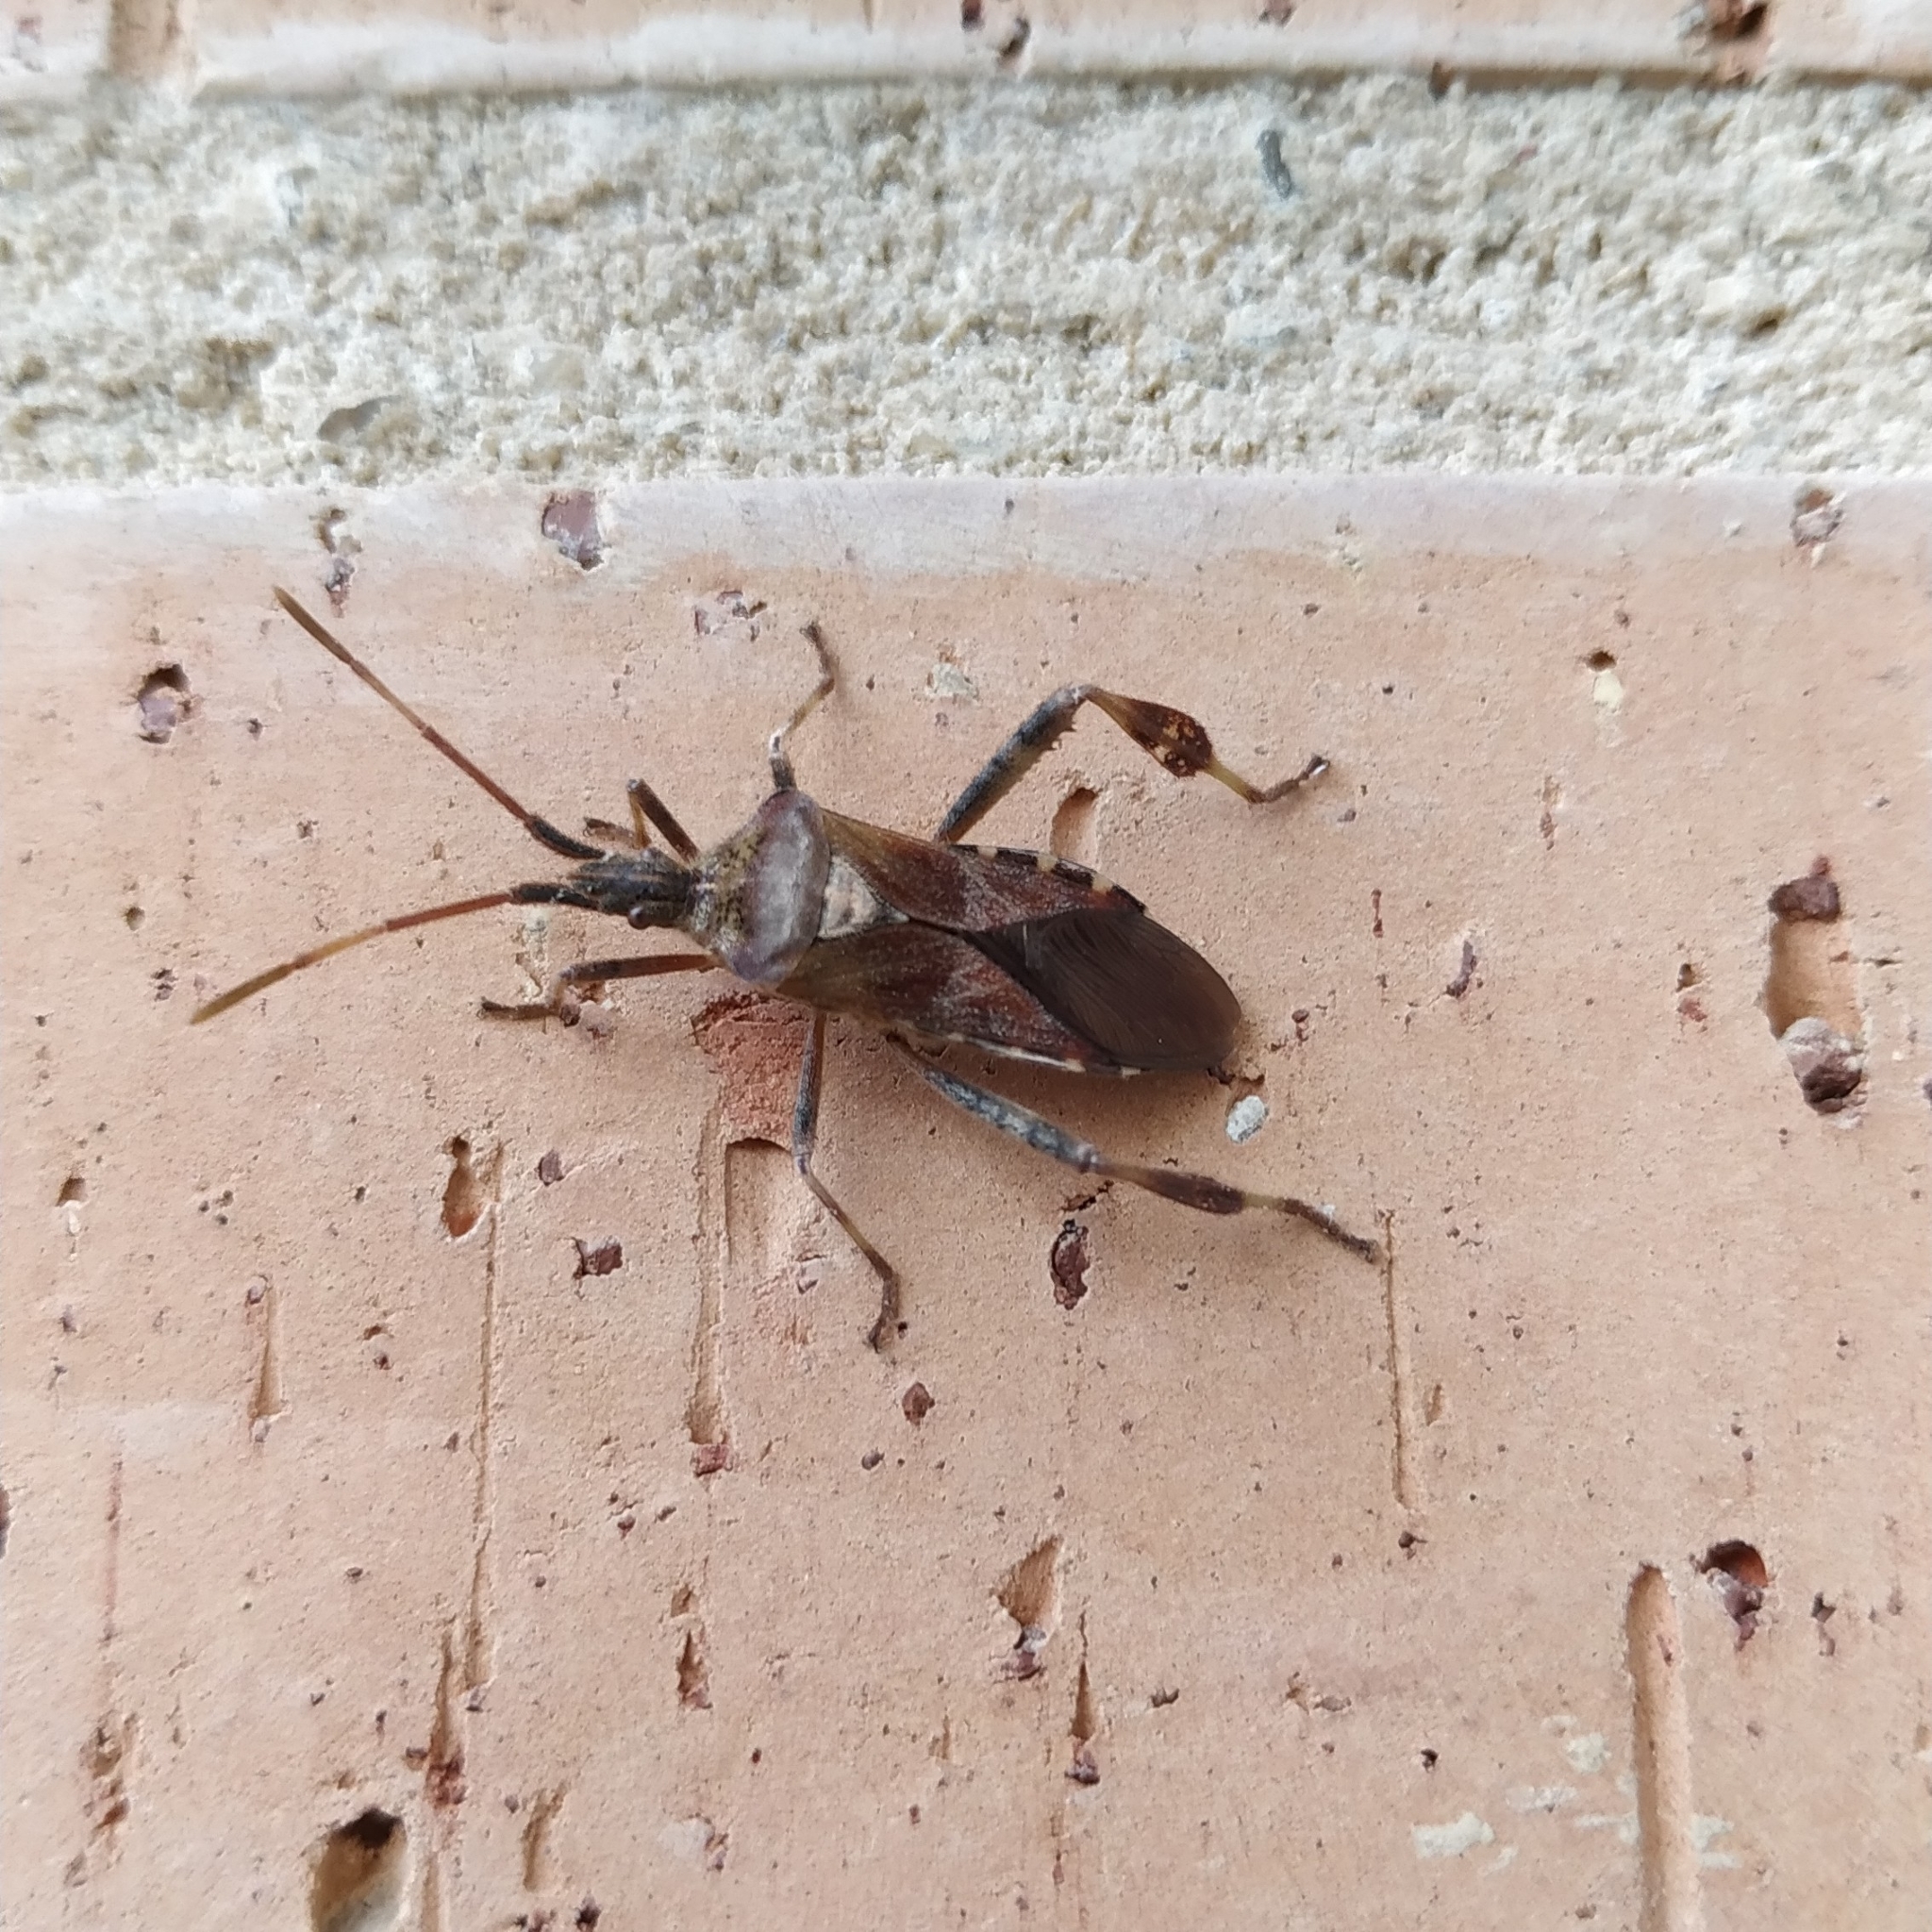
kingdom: Animalia
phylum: Arthropoda
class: Insecta
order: Hemiptera
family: Coreidae
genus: Leptoglossus
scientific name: Leptoglossus occidentalis
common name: Western conifer-seed bug
